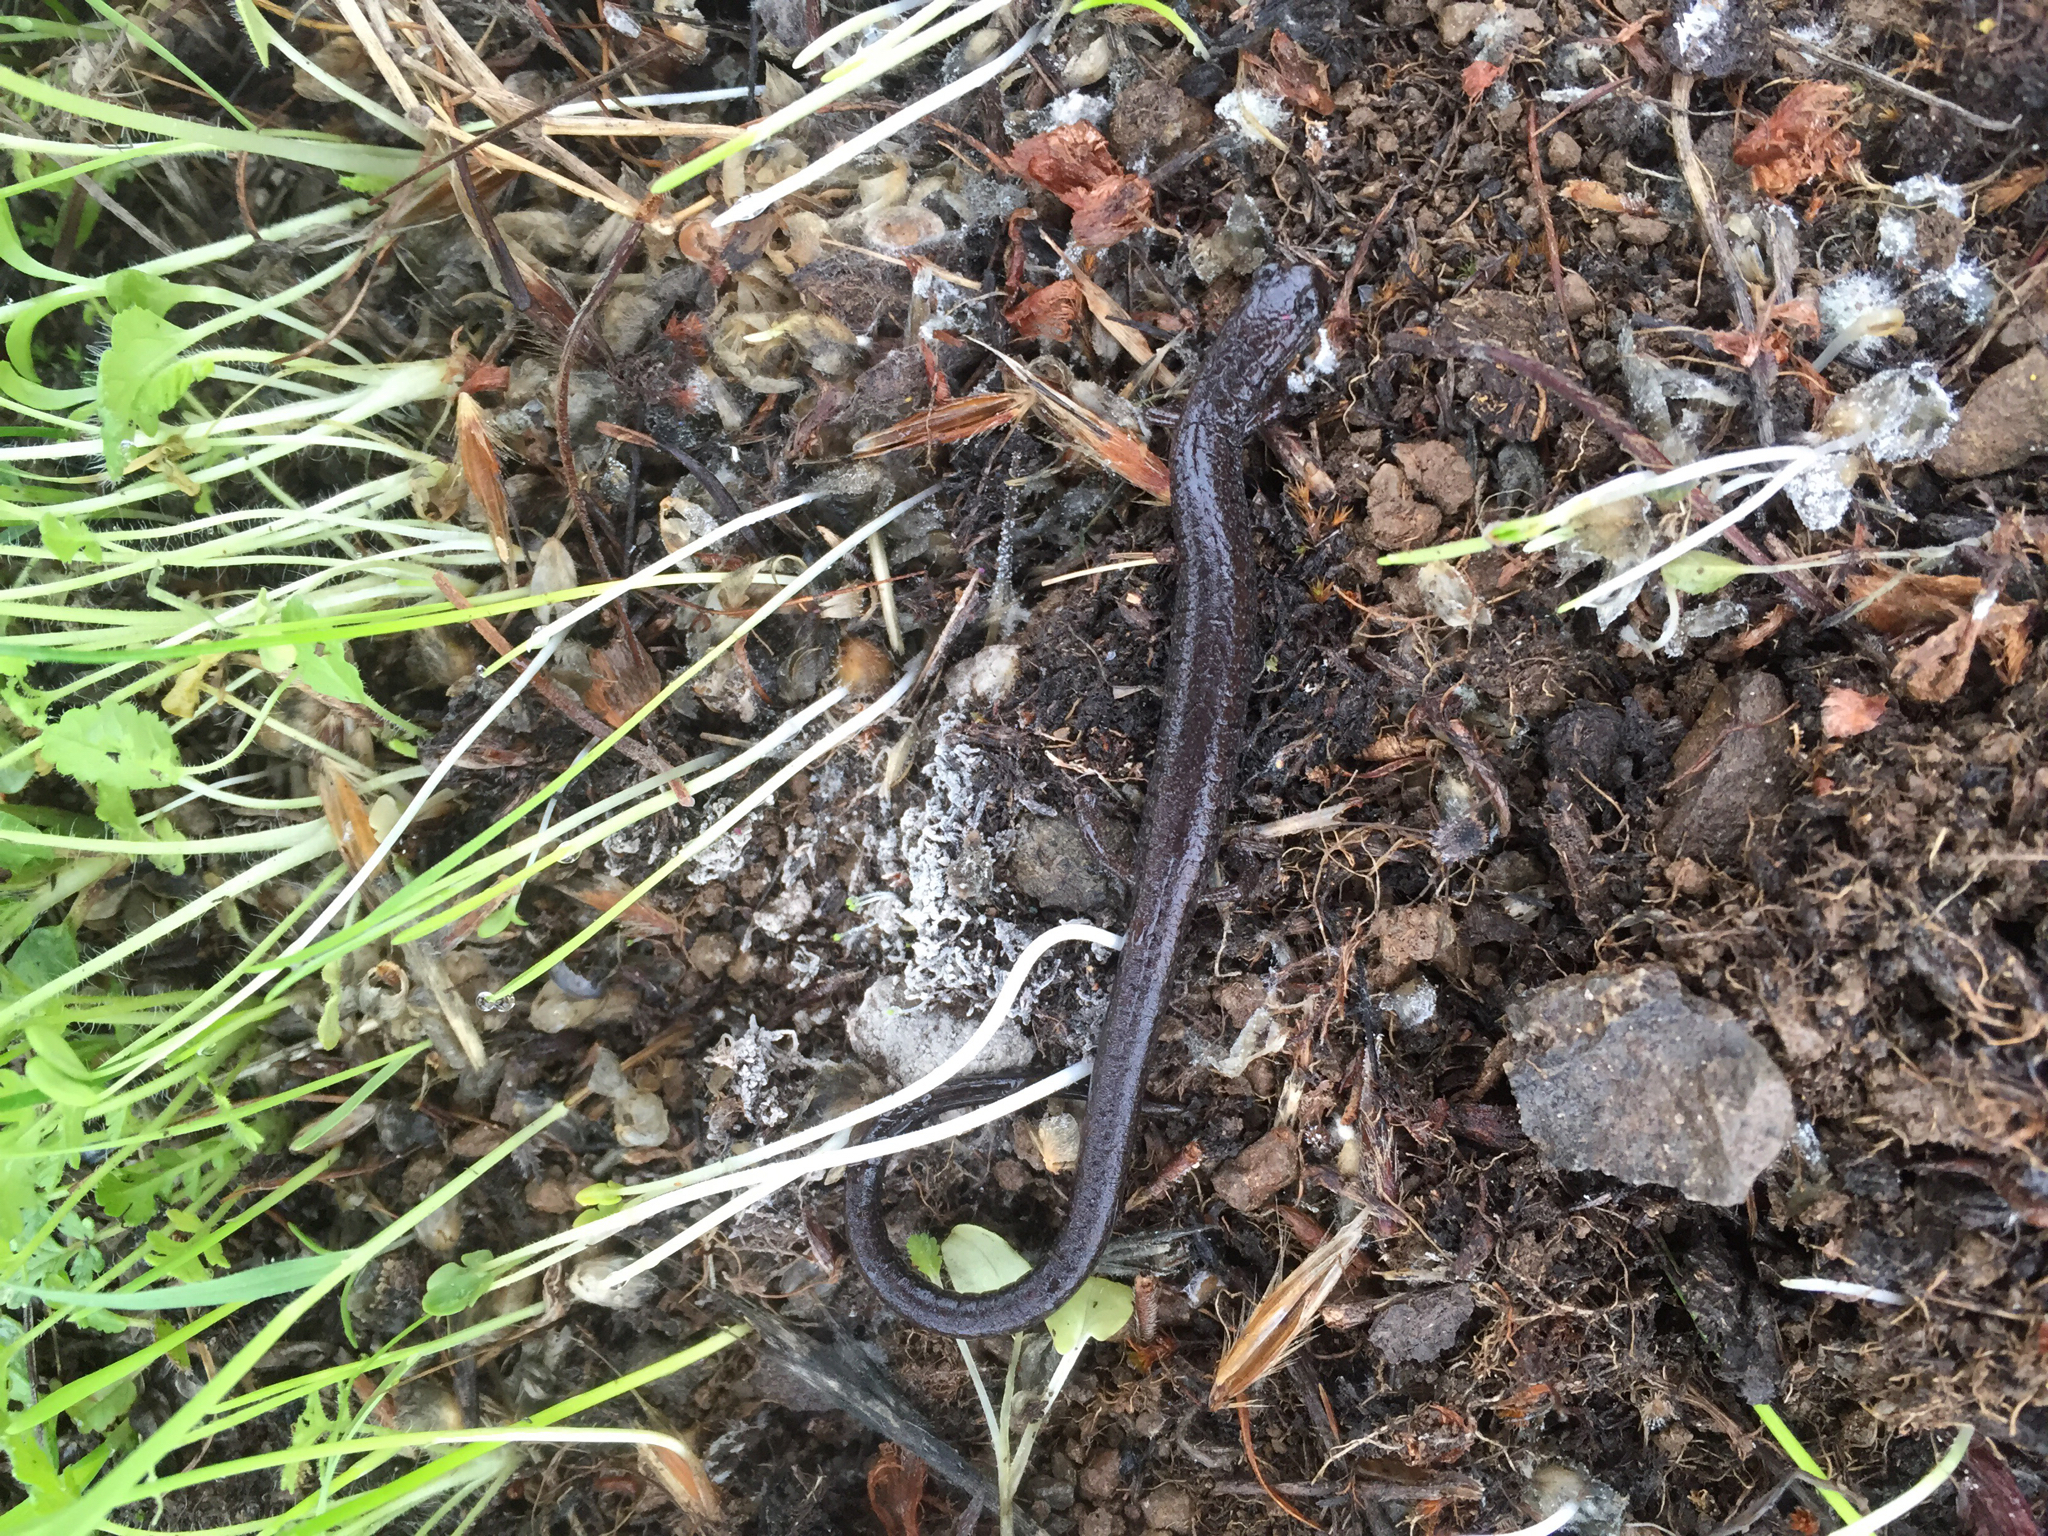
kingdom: Animalia
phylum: Chordata
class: Amphibia
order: Caudata
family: Plethodontidae
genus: Batrachoseps
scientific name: Batrachoseps attenuatus
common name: California slender salamander
